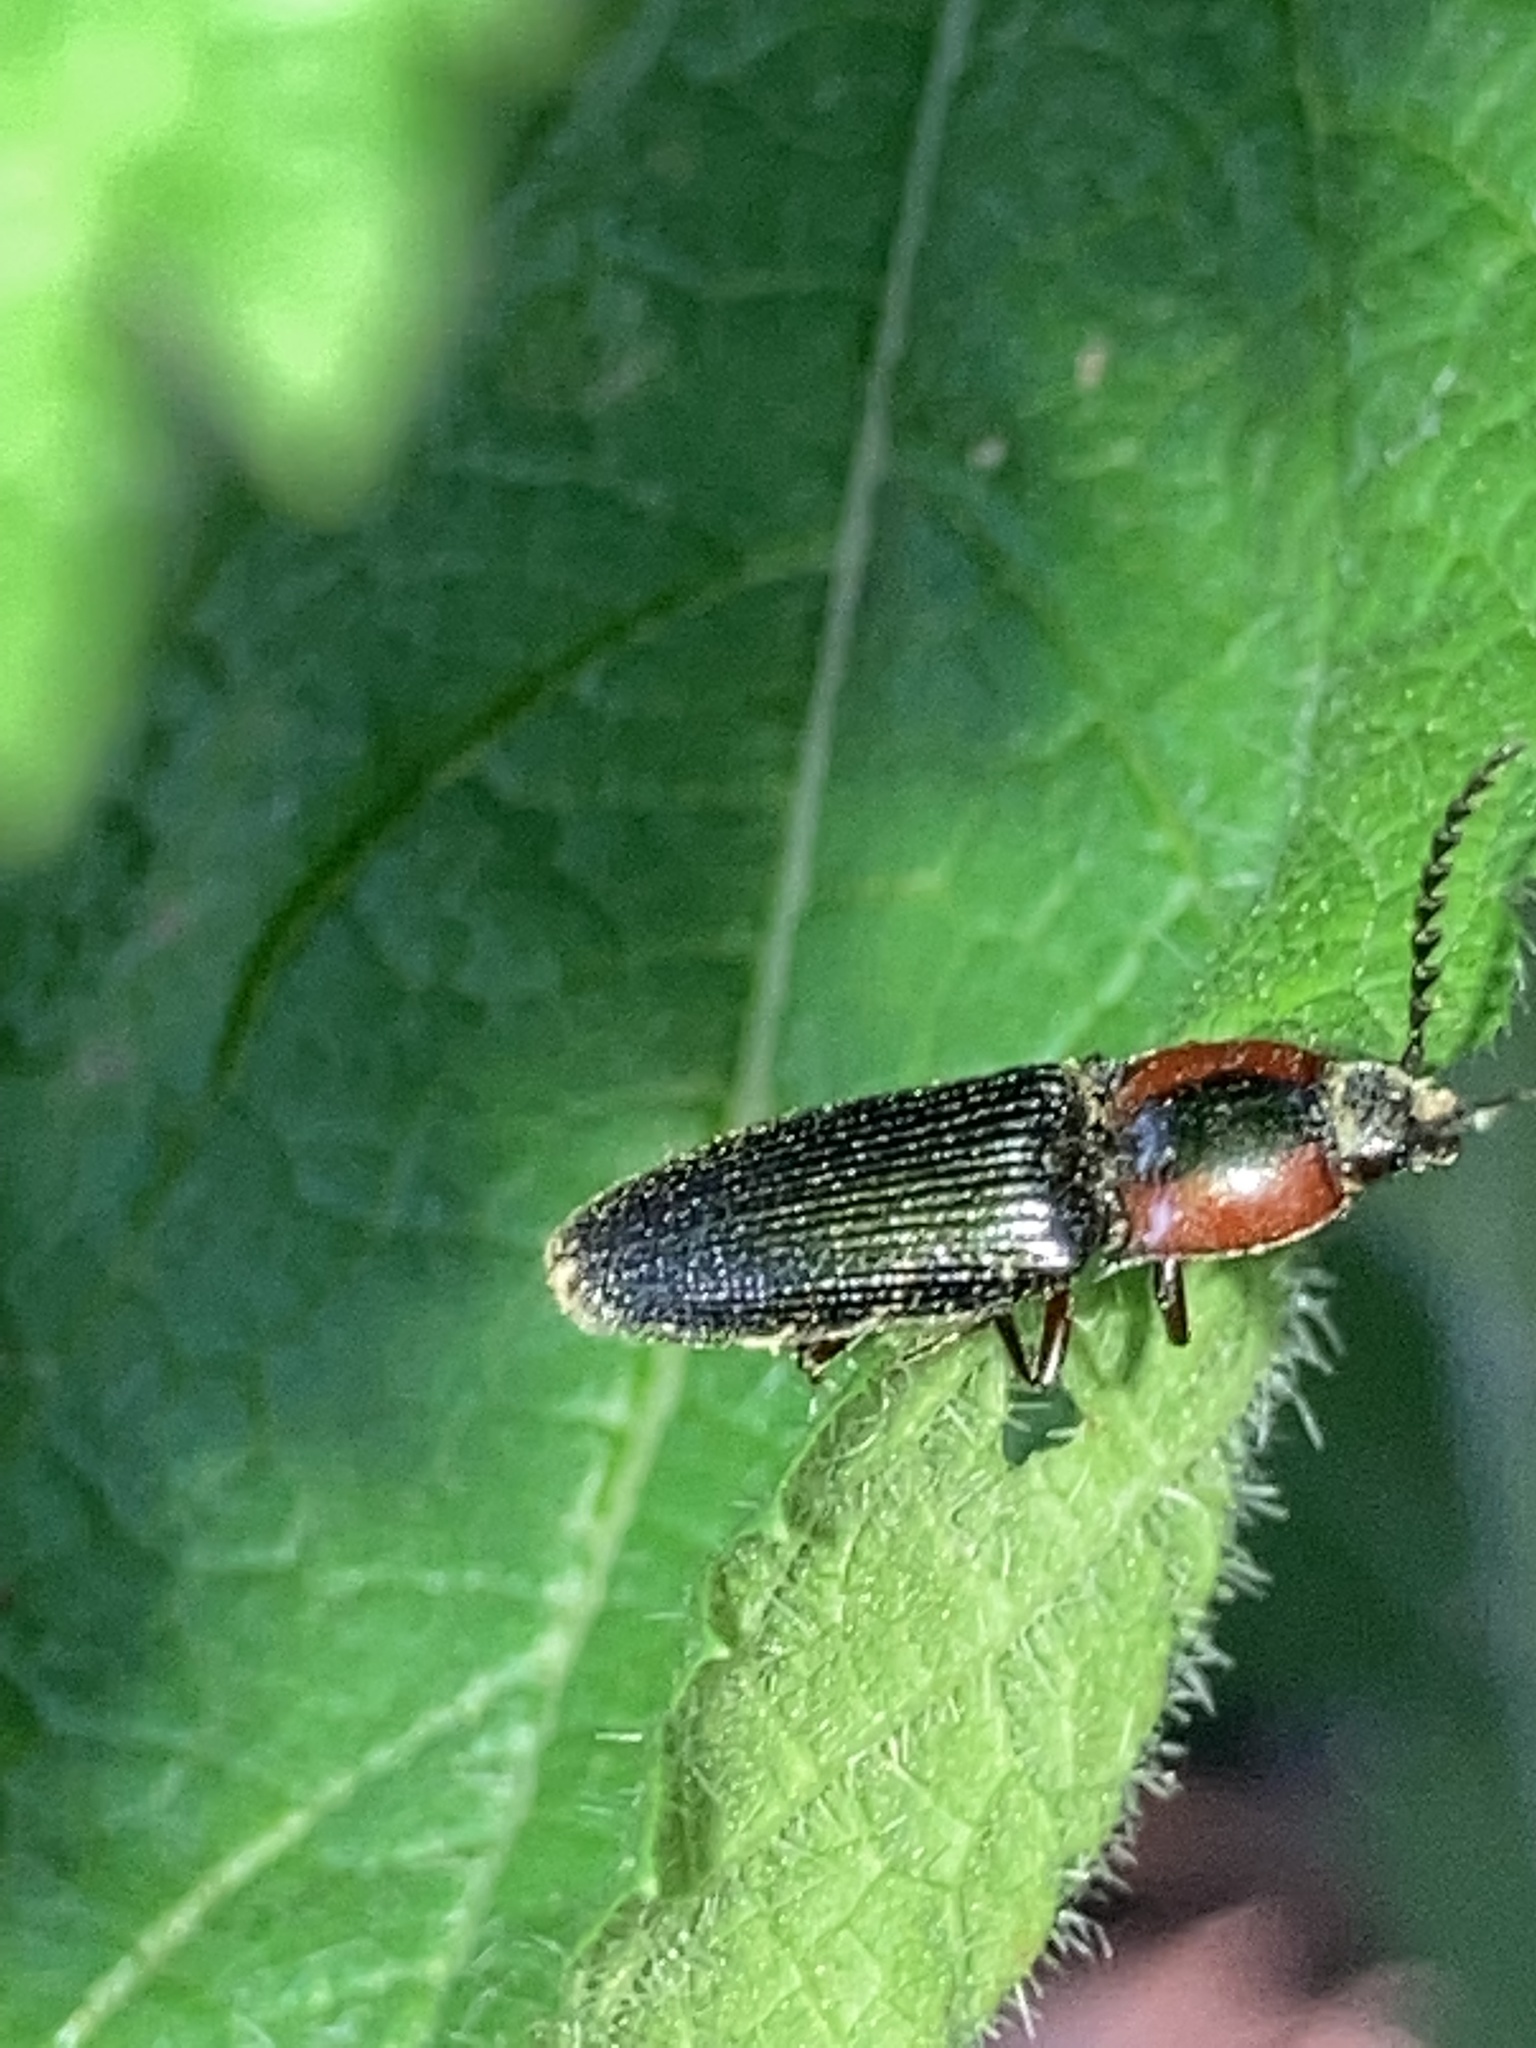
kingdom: Animalia
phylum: Arthropoda
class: Insecta
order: Coleoptera
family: Curculionidae
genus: Brownia
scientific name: Brownia
